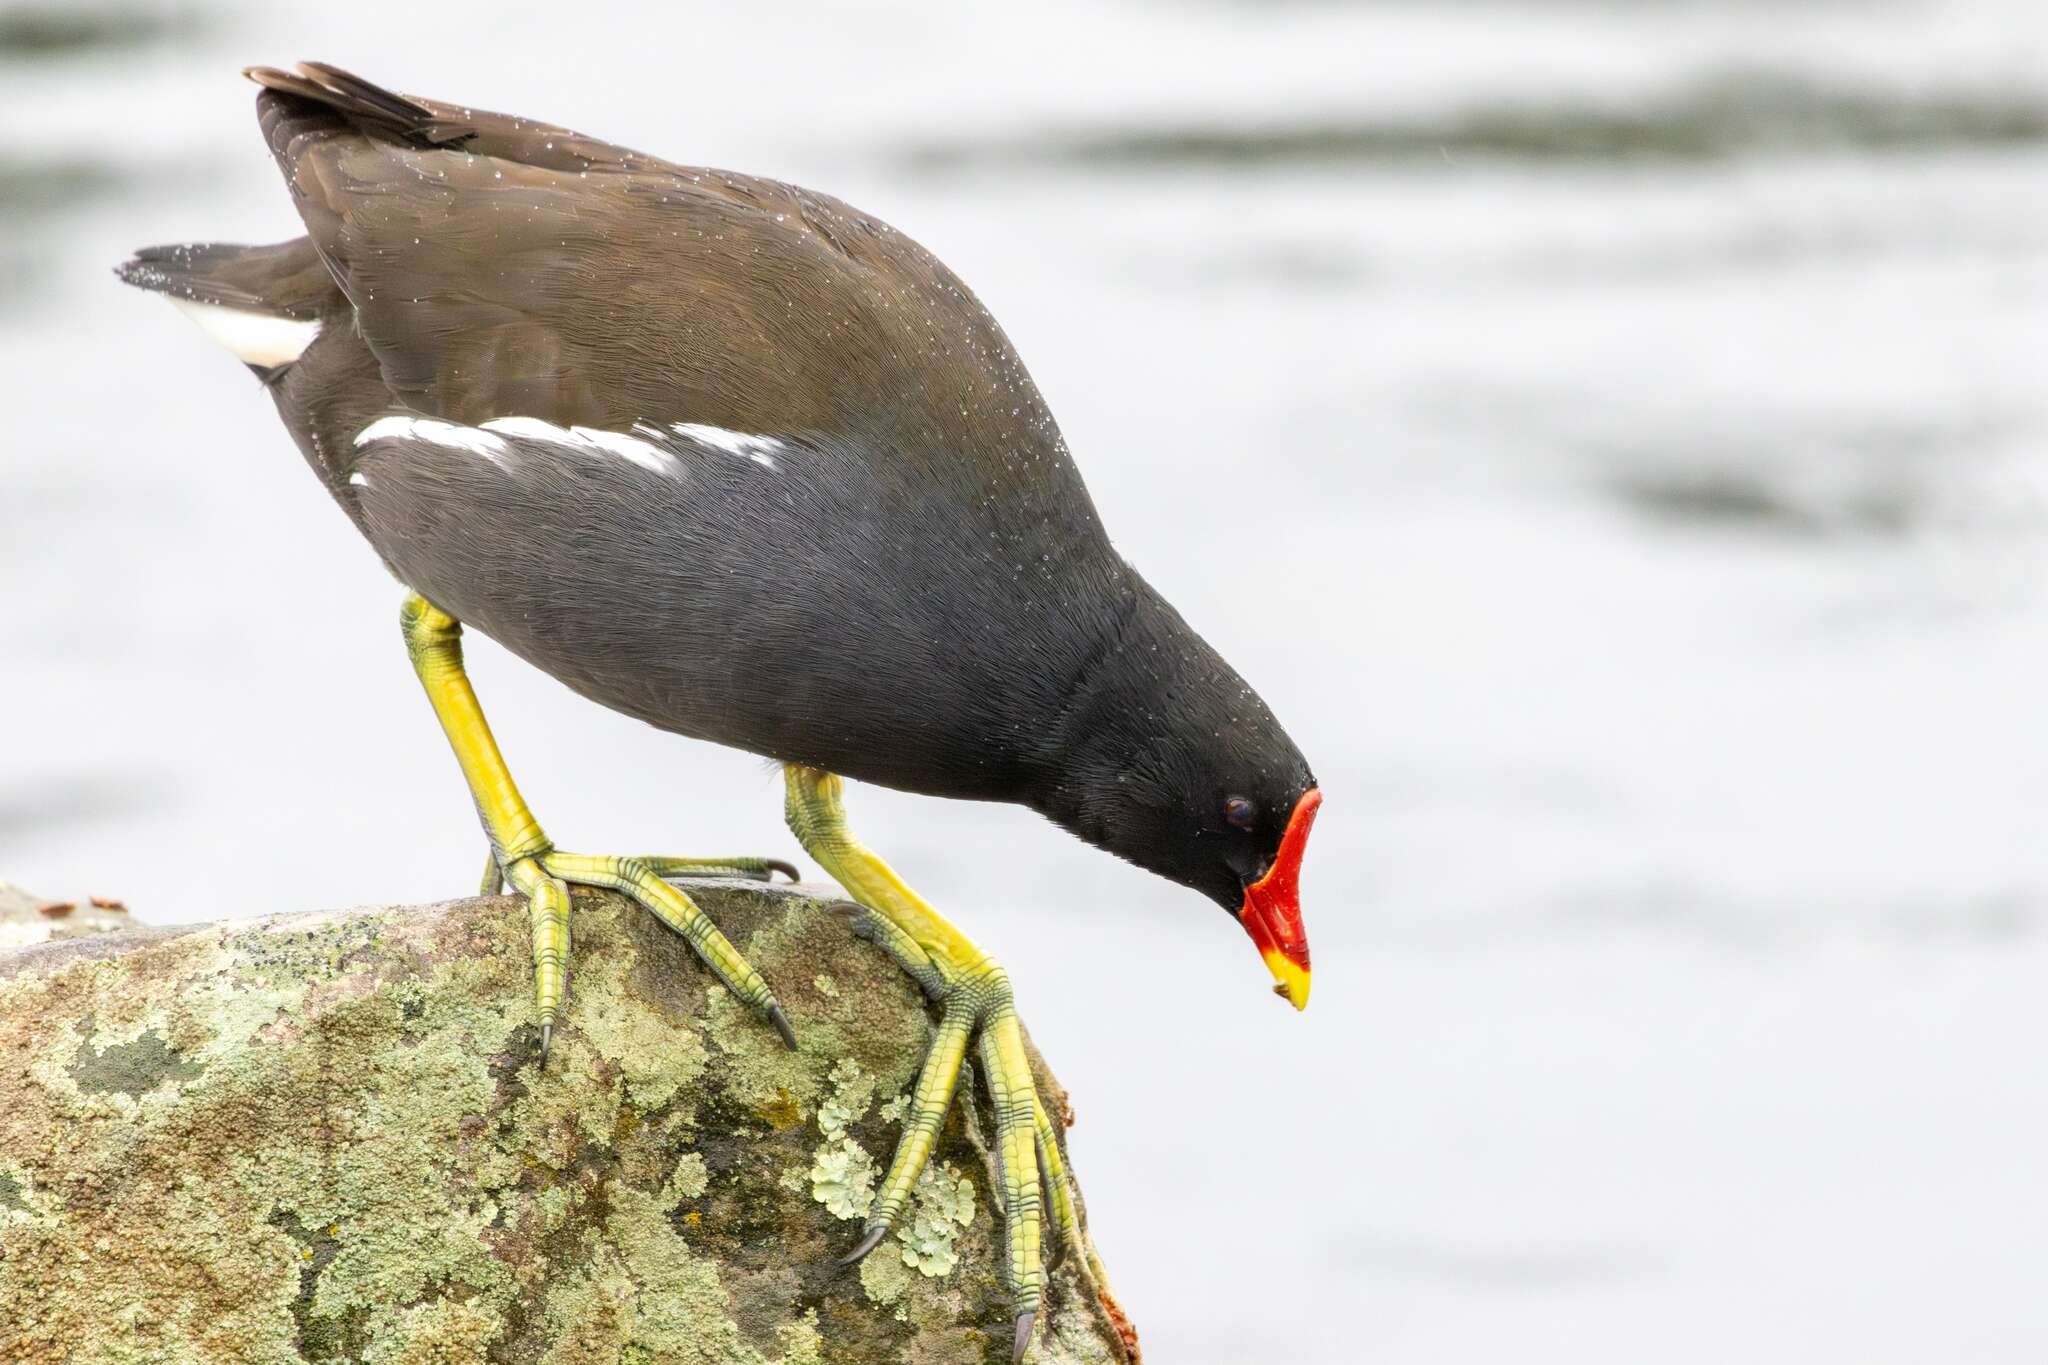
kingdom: Animalia
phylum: Chordata
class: Aves
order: Gruiformes
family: Rallidae
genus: Gallinula
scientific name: Gallinula chloropus
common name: Common moorhen
